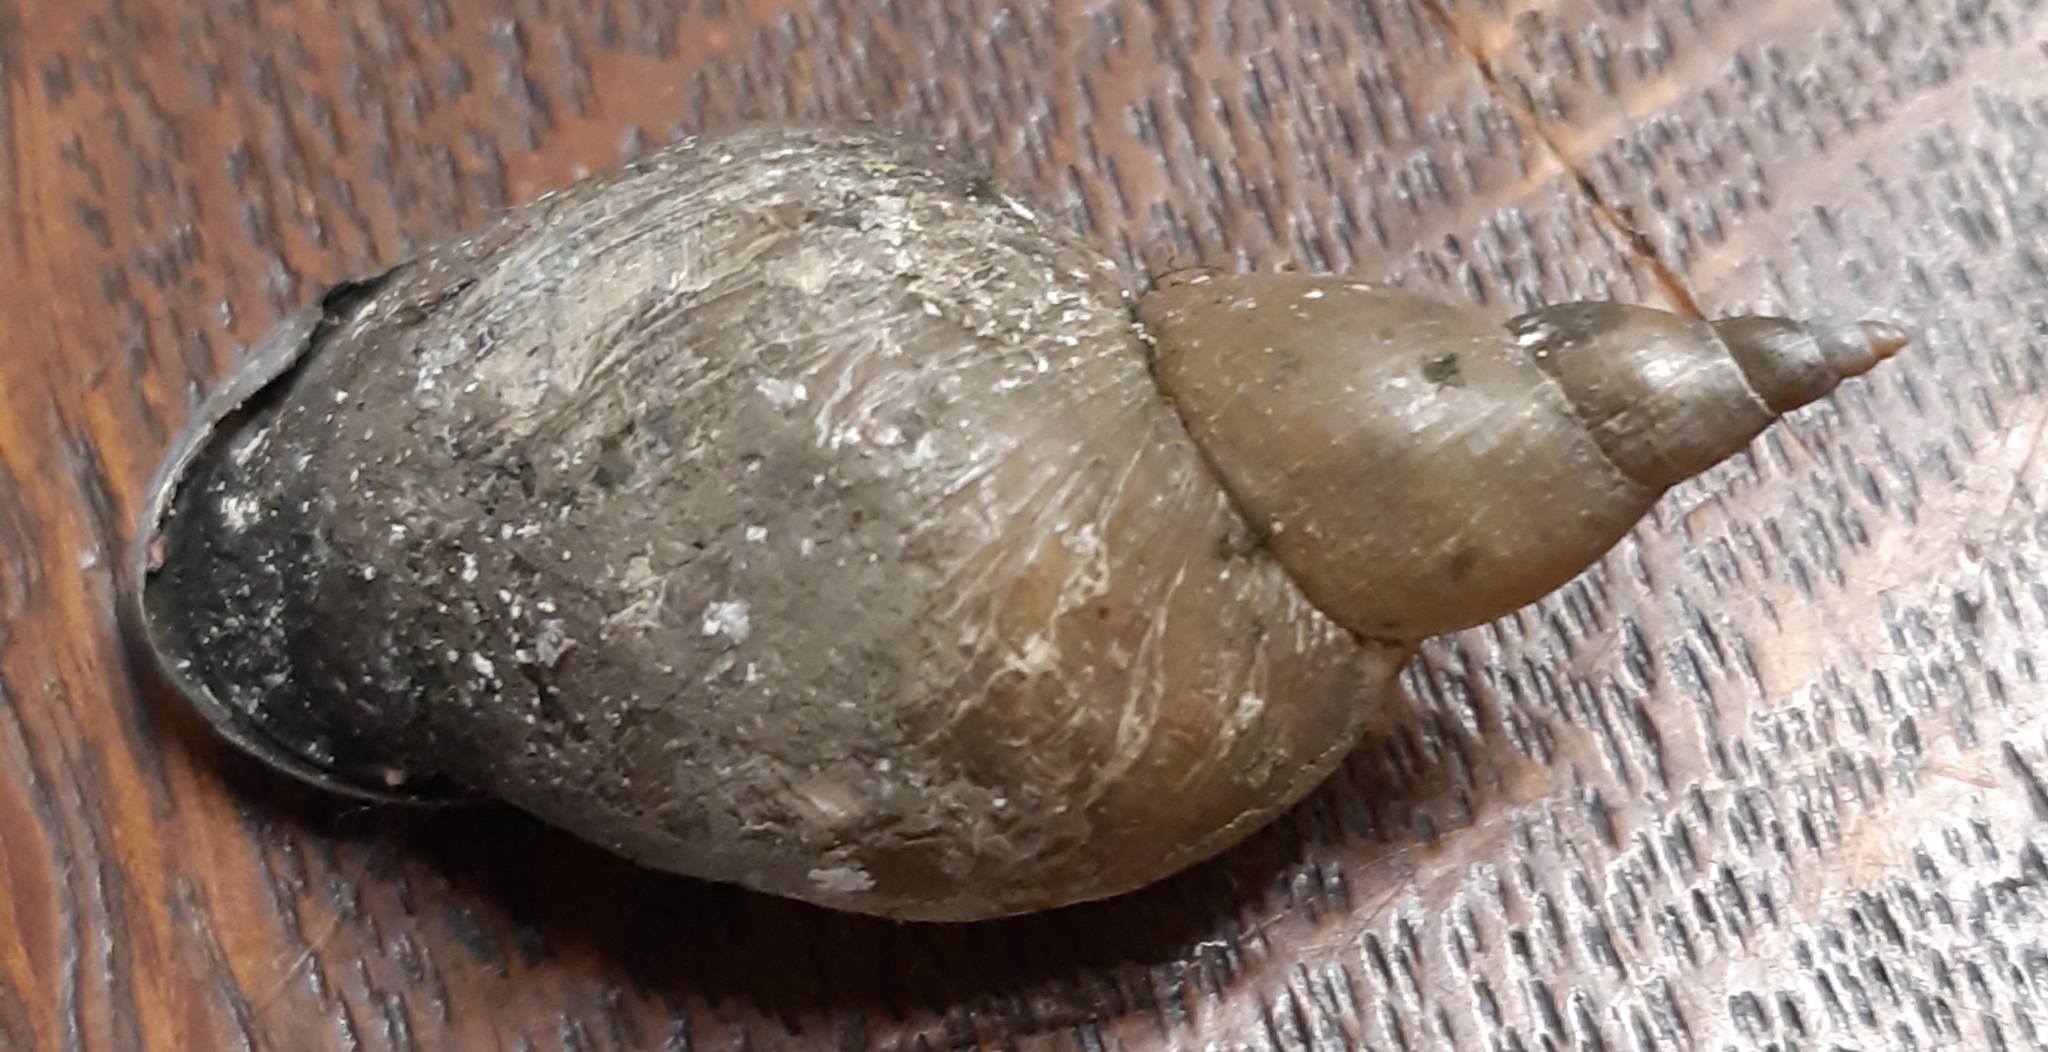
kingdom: Animalia
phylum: Mollusca
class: Gastropoda
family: Lymnaeidae
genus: Lymnaea
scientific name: Lymnaea stagnalis
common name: Great pond snail
